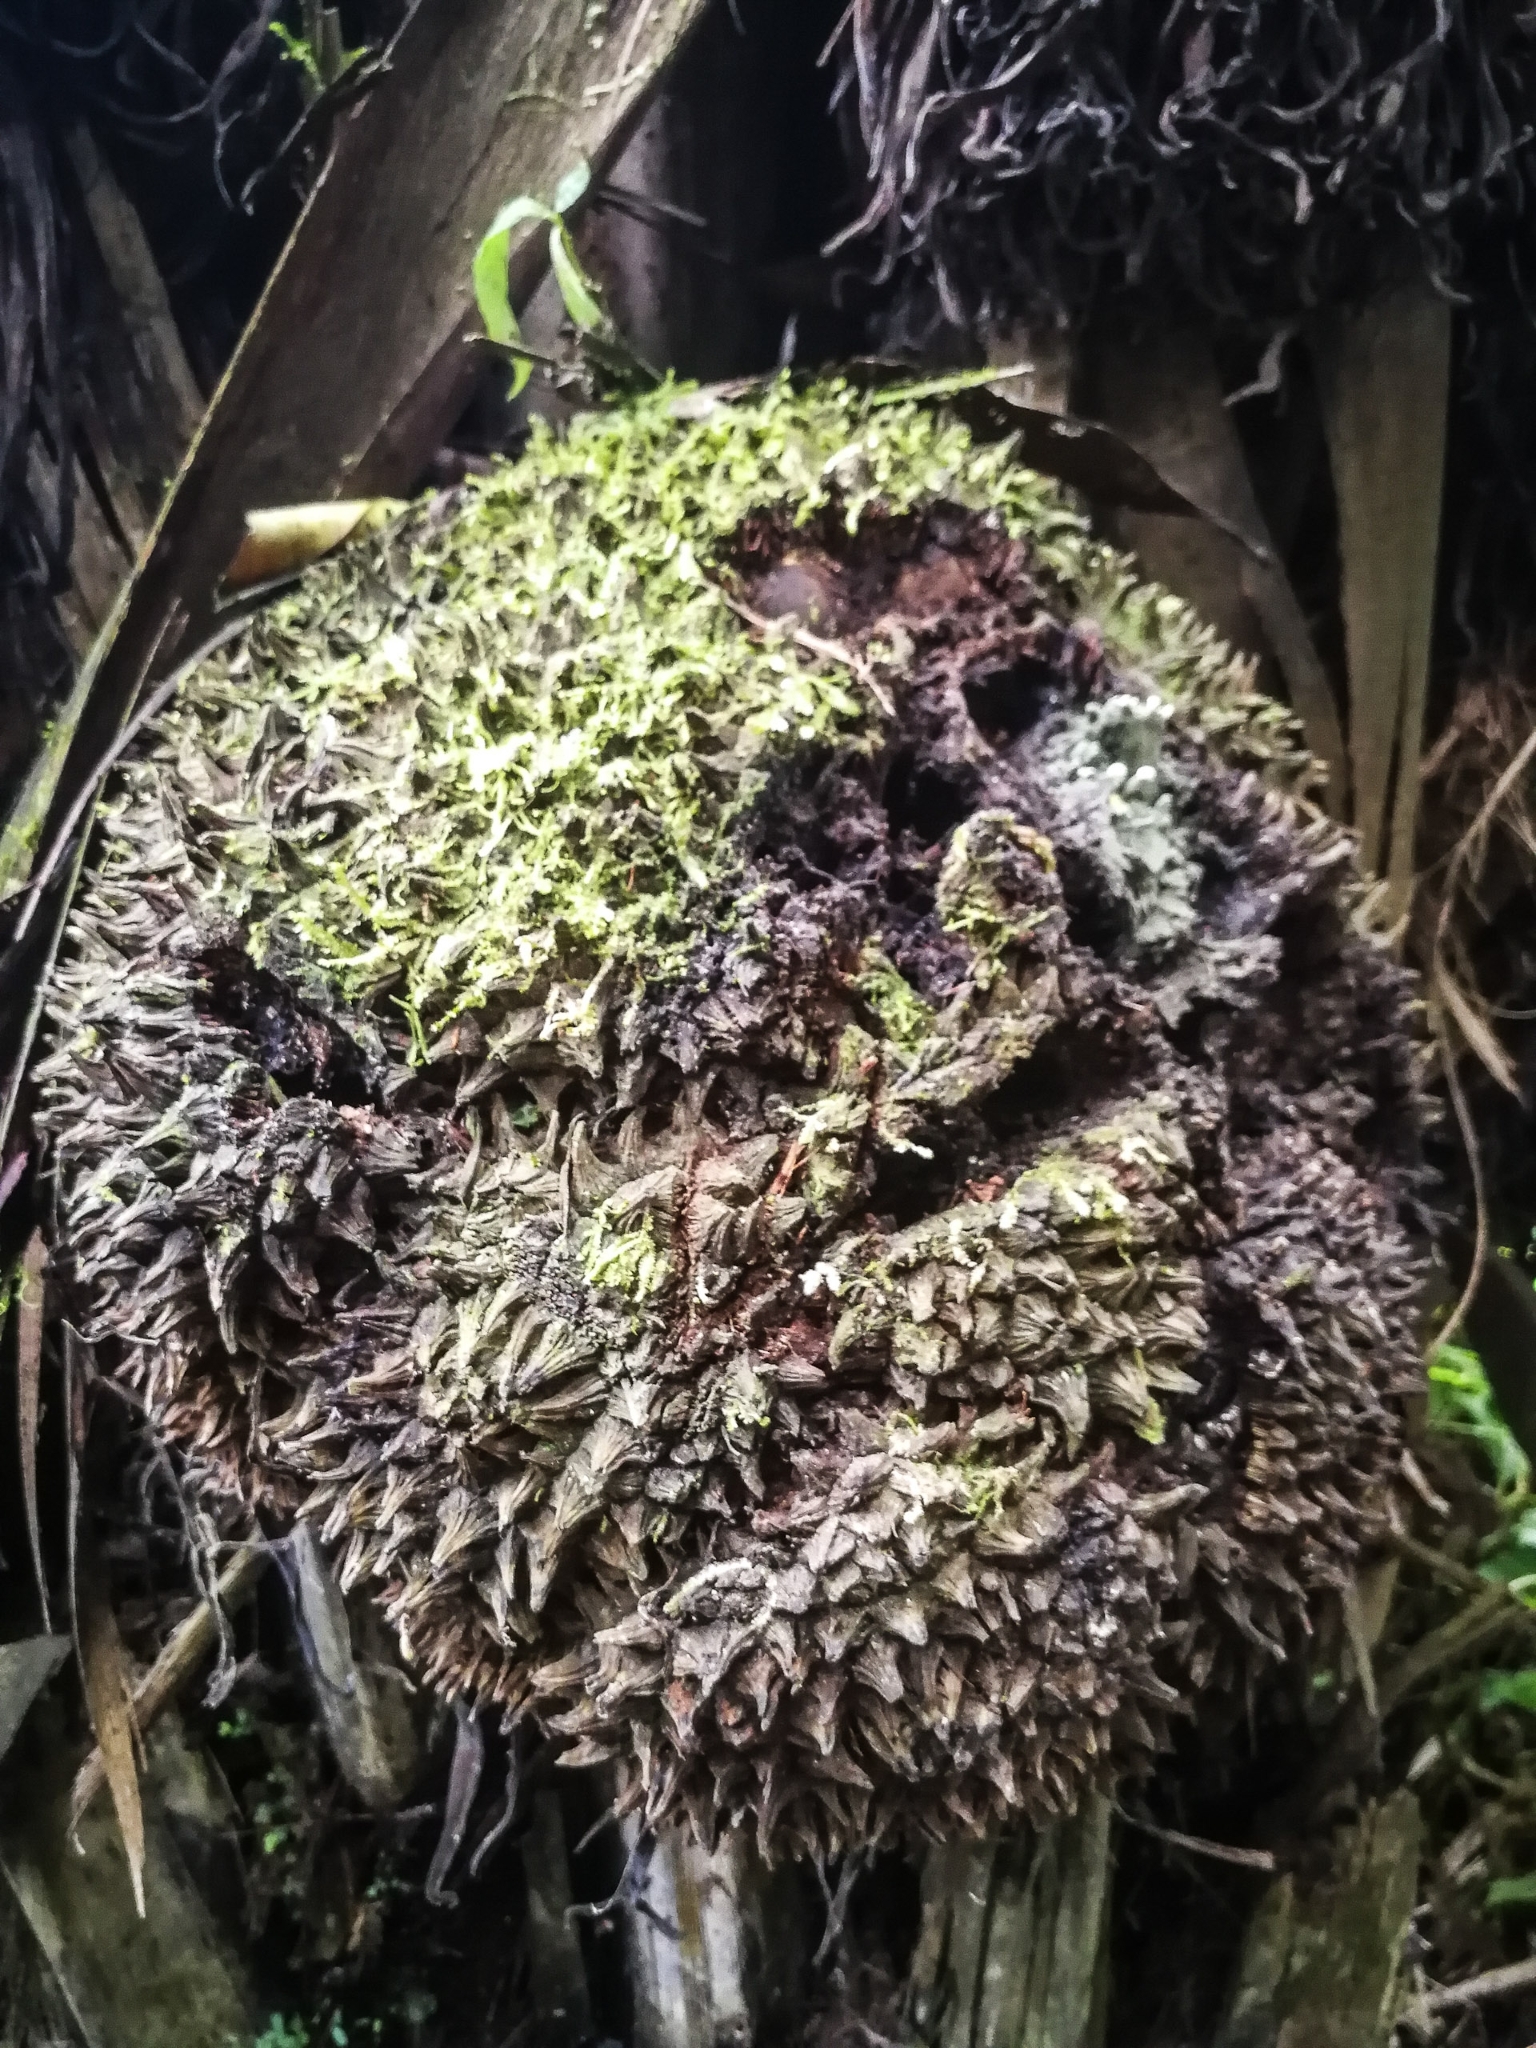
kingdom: Plantae
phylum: Tracheophyta
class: Liliopsida
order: Arecales
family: Arecaceae
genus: Phytelephas
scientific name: Phytelephas aequatorialis
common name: Ivory palm
